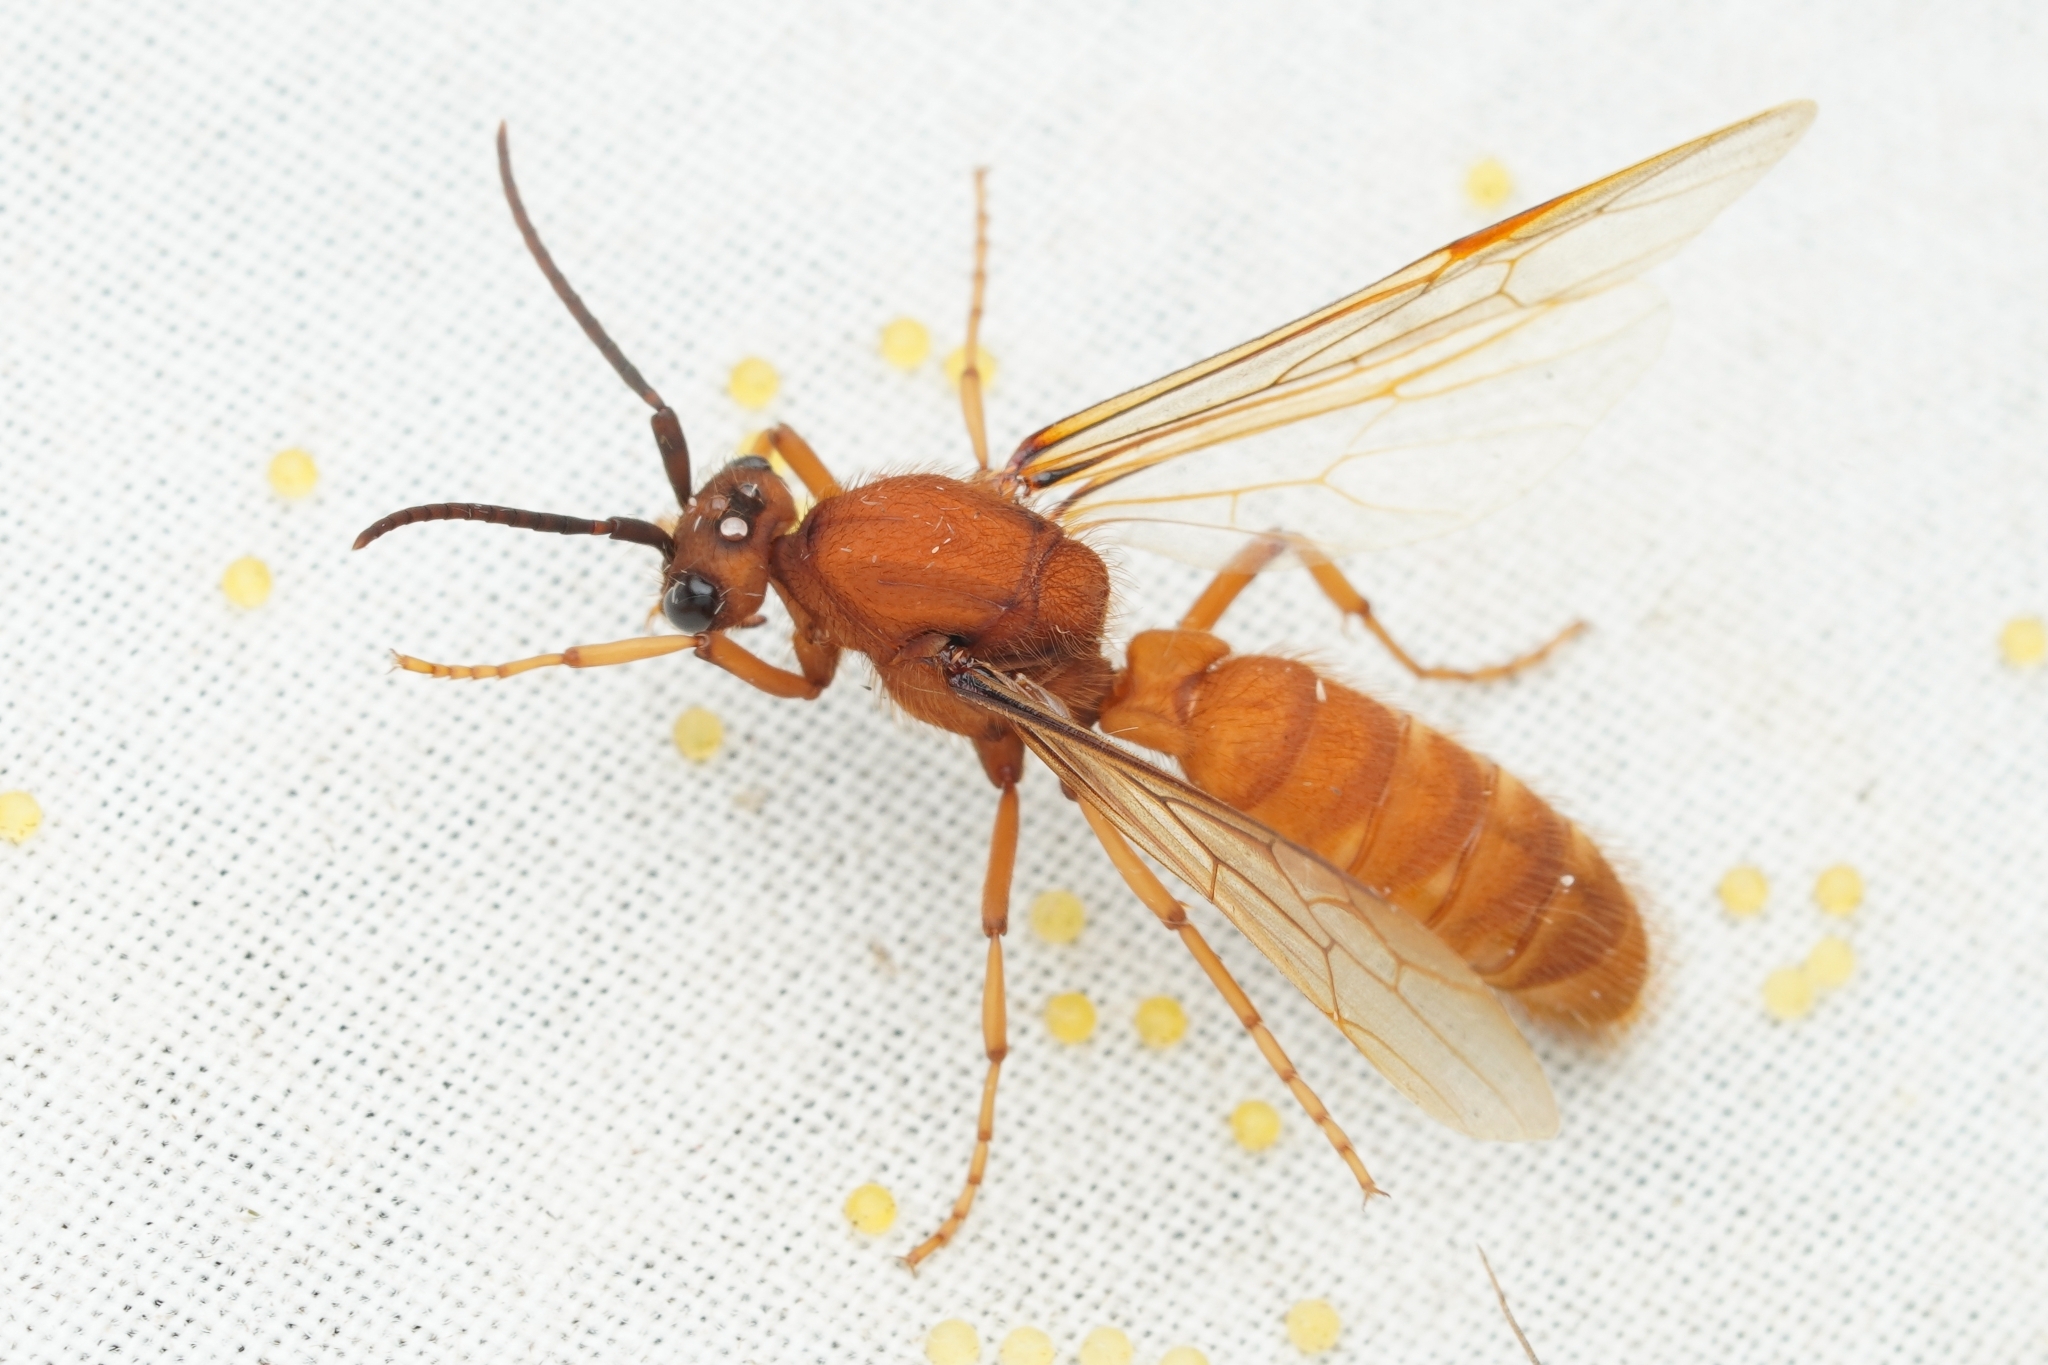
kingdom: Animalia
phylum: Arthropoda
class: Insecta
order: Hymenoptera
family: Formicidae
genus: Eciton
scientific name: Eciton hamatum
